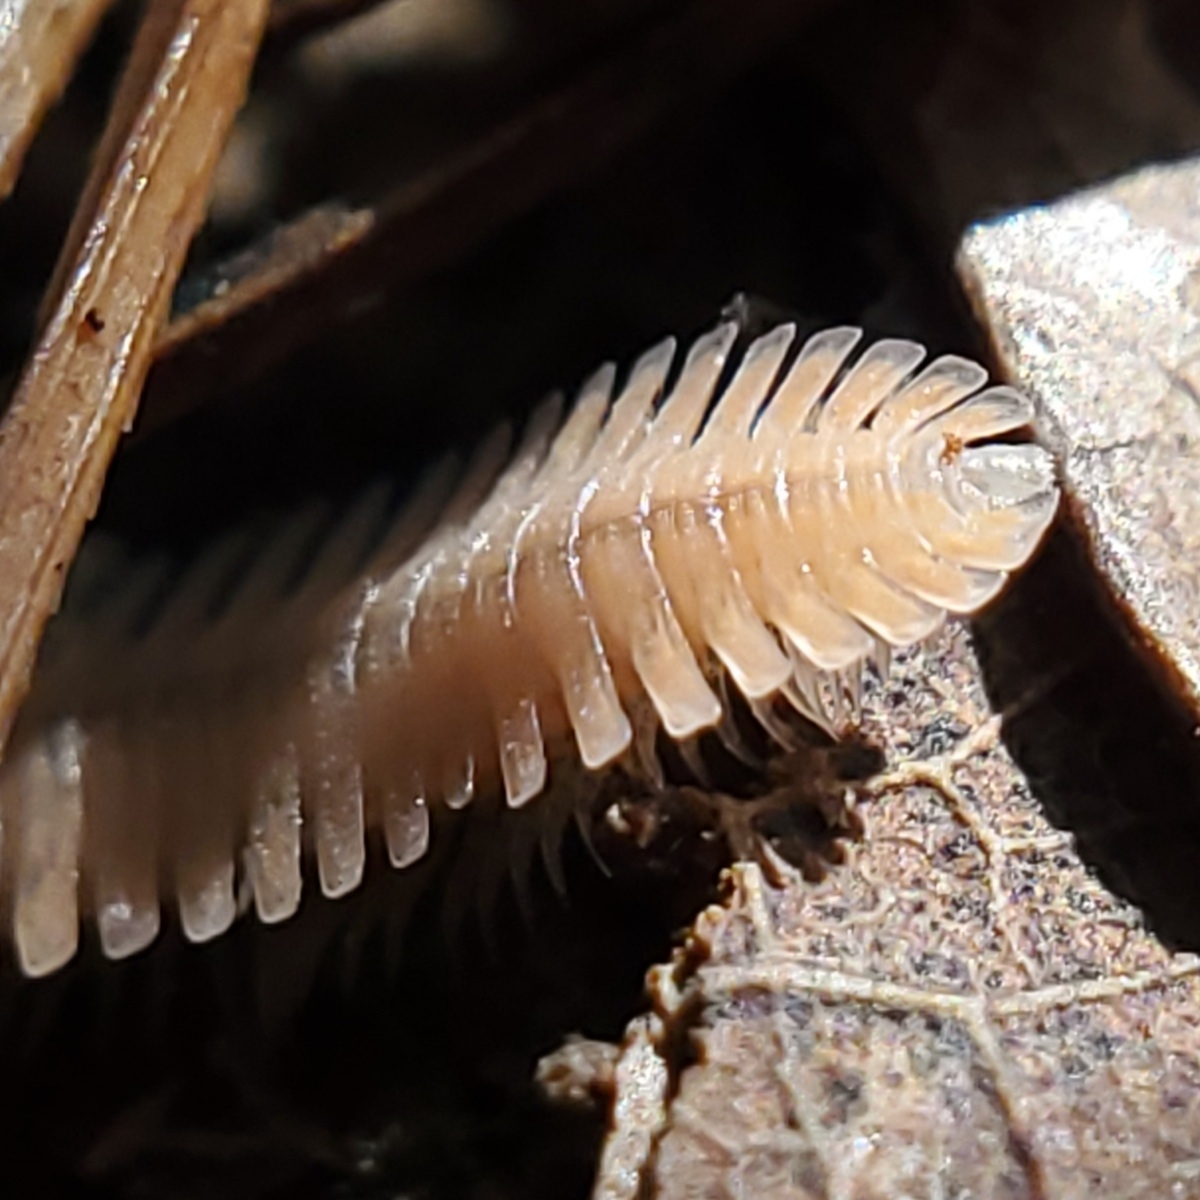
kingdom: Animalia
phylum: Arthropoda
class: Diplopoda
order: Platydesmida
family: Andrognathidae
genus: Brachycybe
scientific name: Brachycybe lecontii
